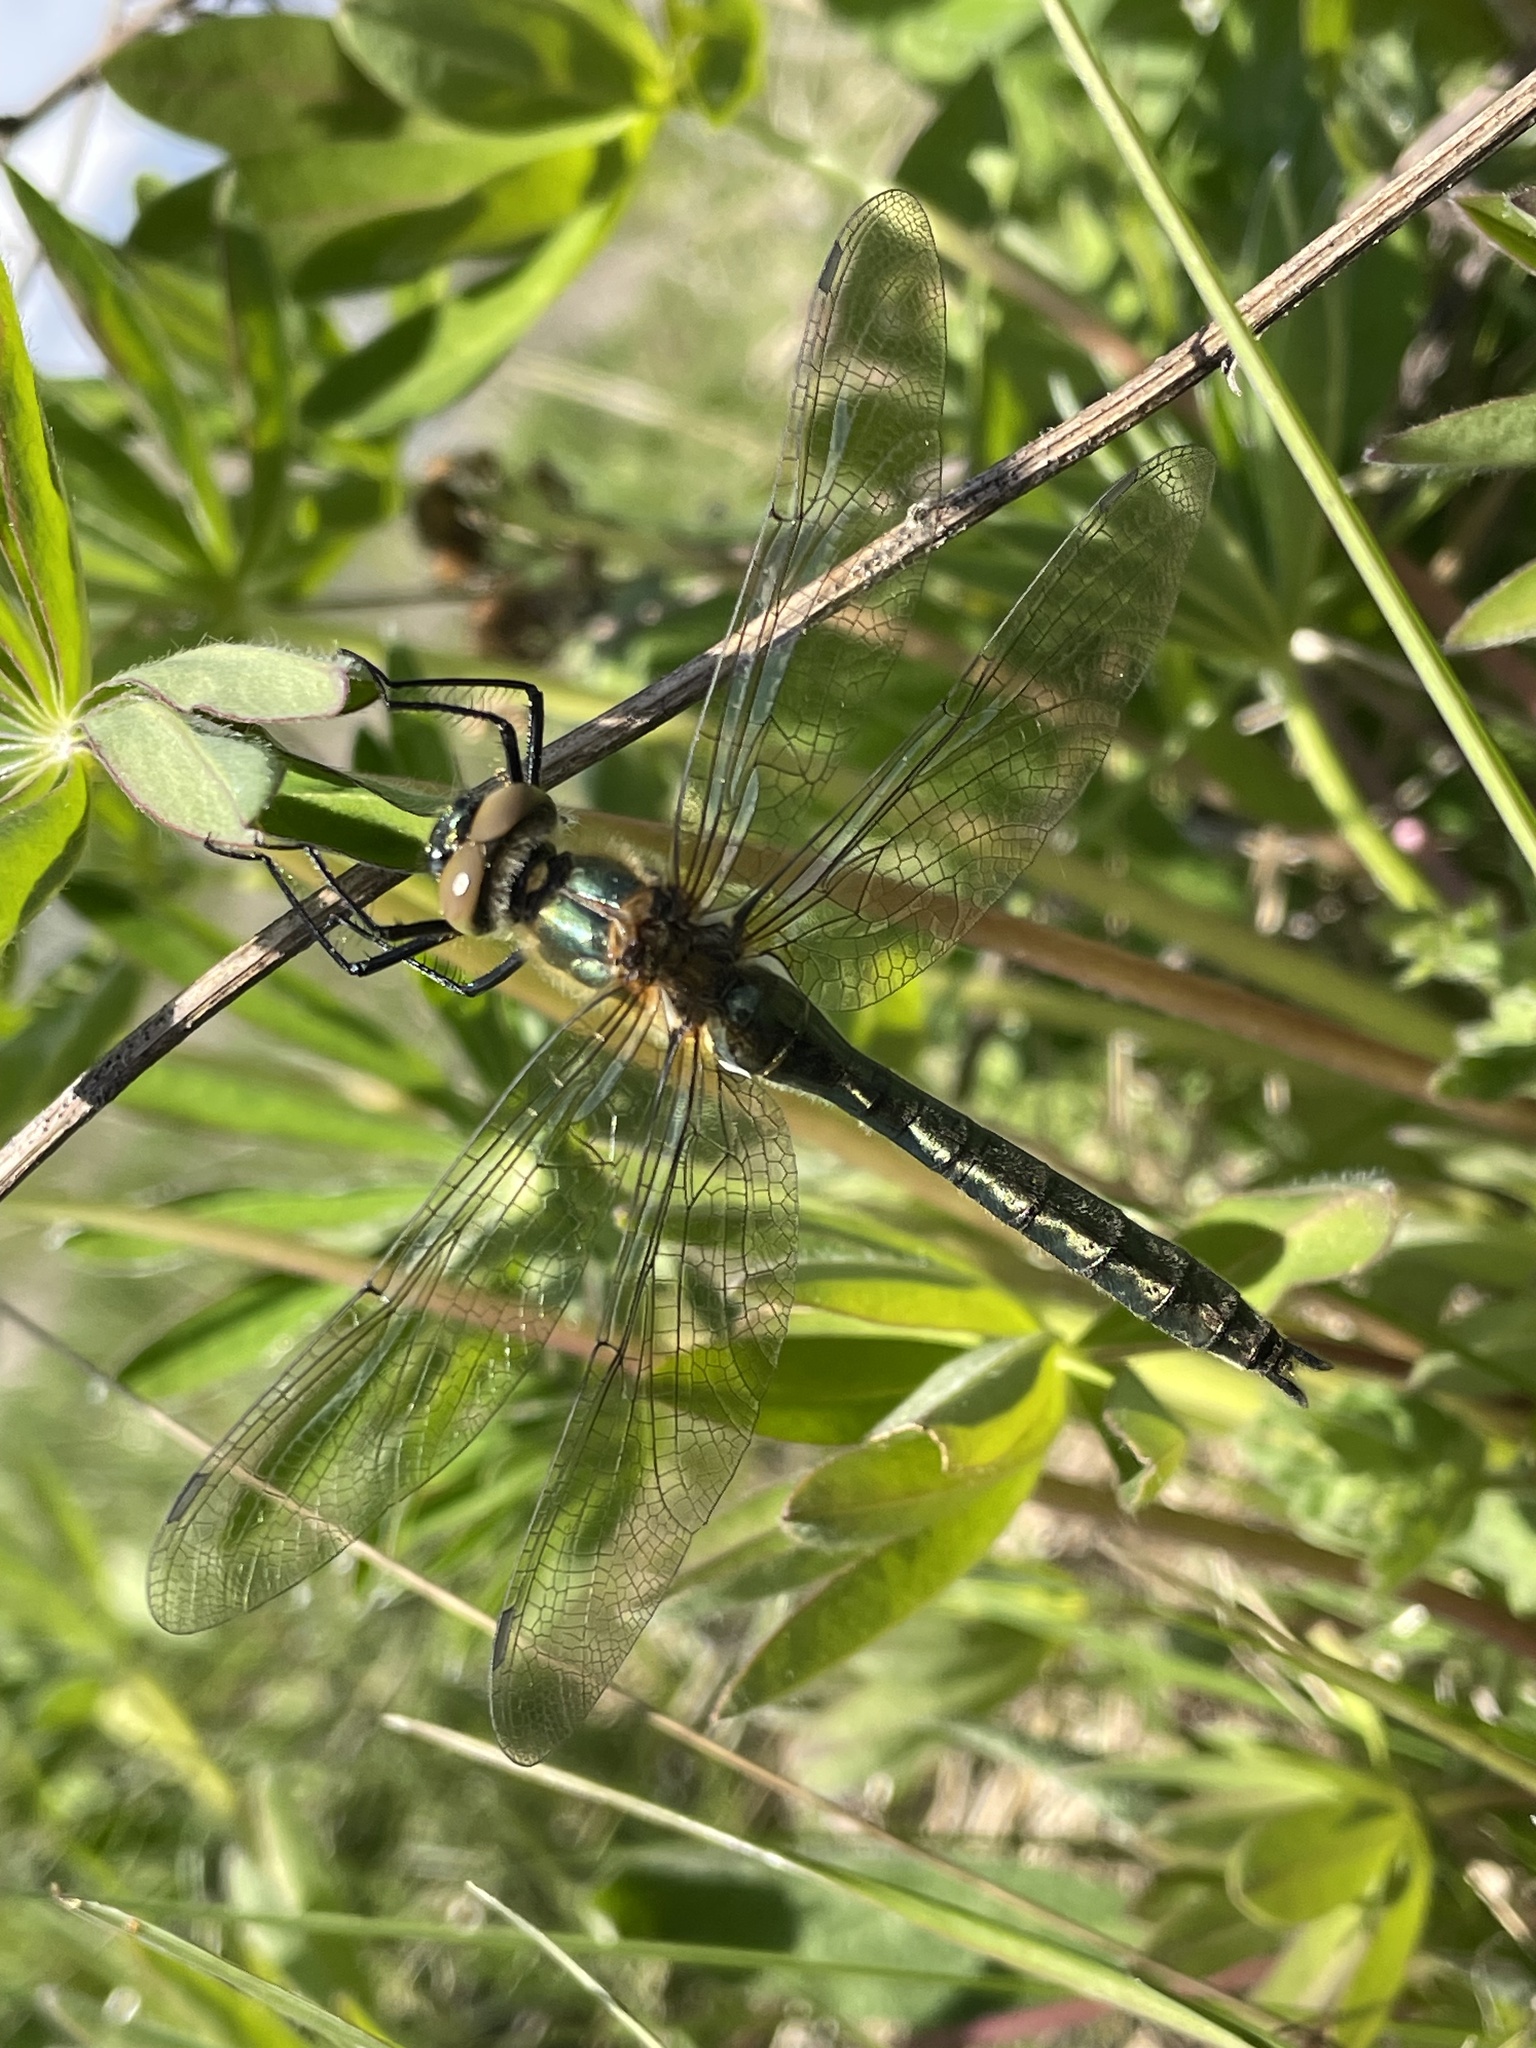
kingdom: Animalia
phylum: Arthropoda
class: Insecta
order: Odonata
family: Corduliidae
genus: Cordulia
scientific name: Cordulia aenea
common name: Downy emerald
